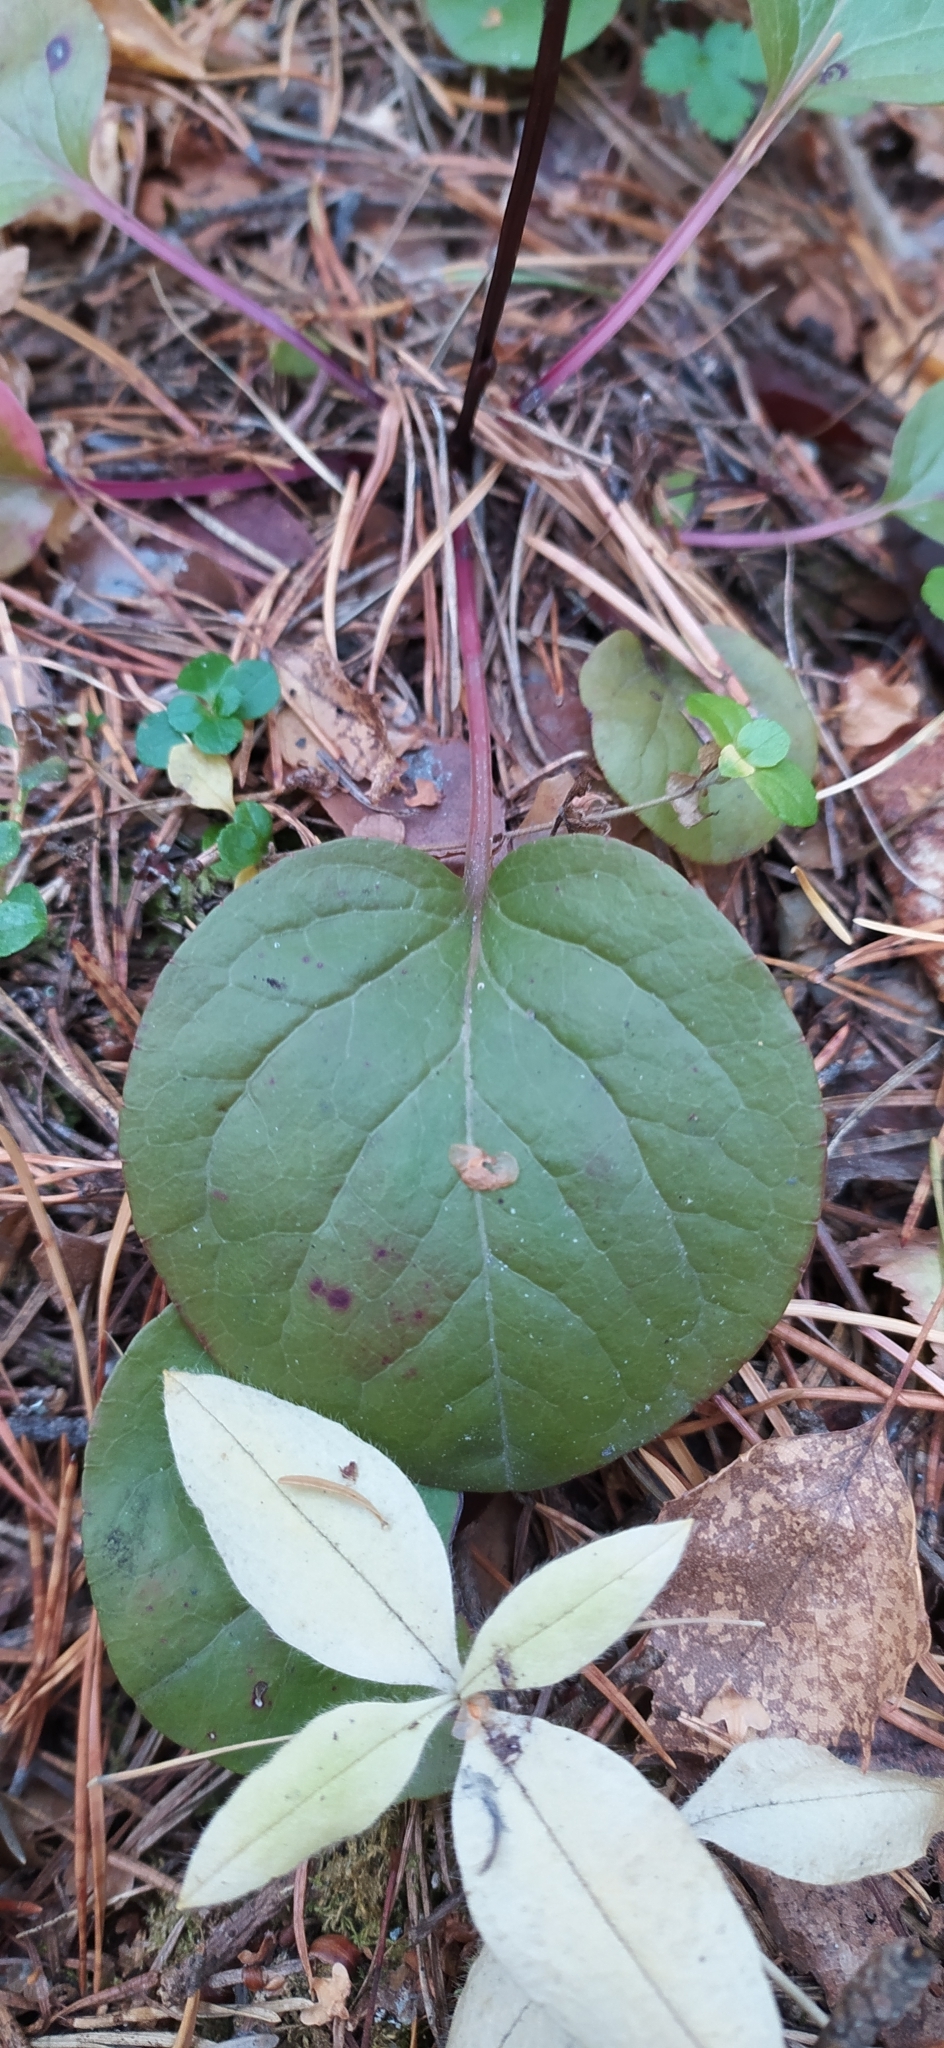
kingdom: Plantae
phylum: Tracheophyta
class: Magnoliopsida
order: Ericales
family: Ericaceae
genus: Pyrola
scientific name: Pyrola rotundifolia
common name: Round-leaved wintergreen
